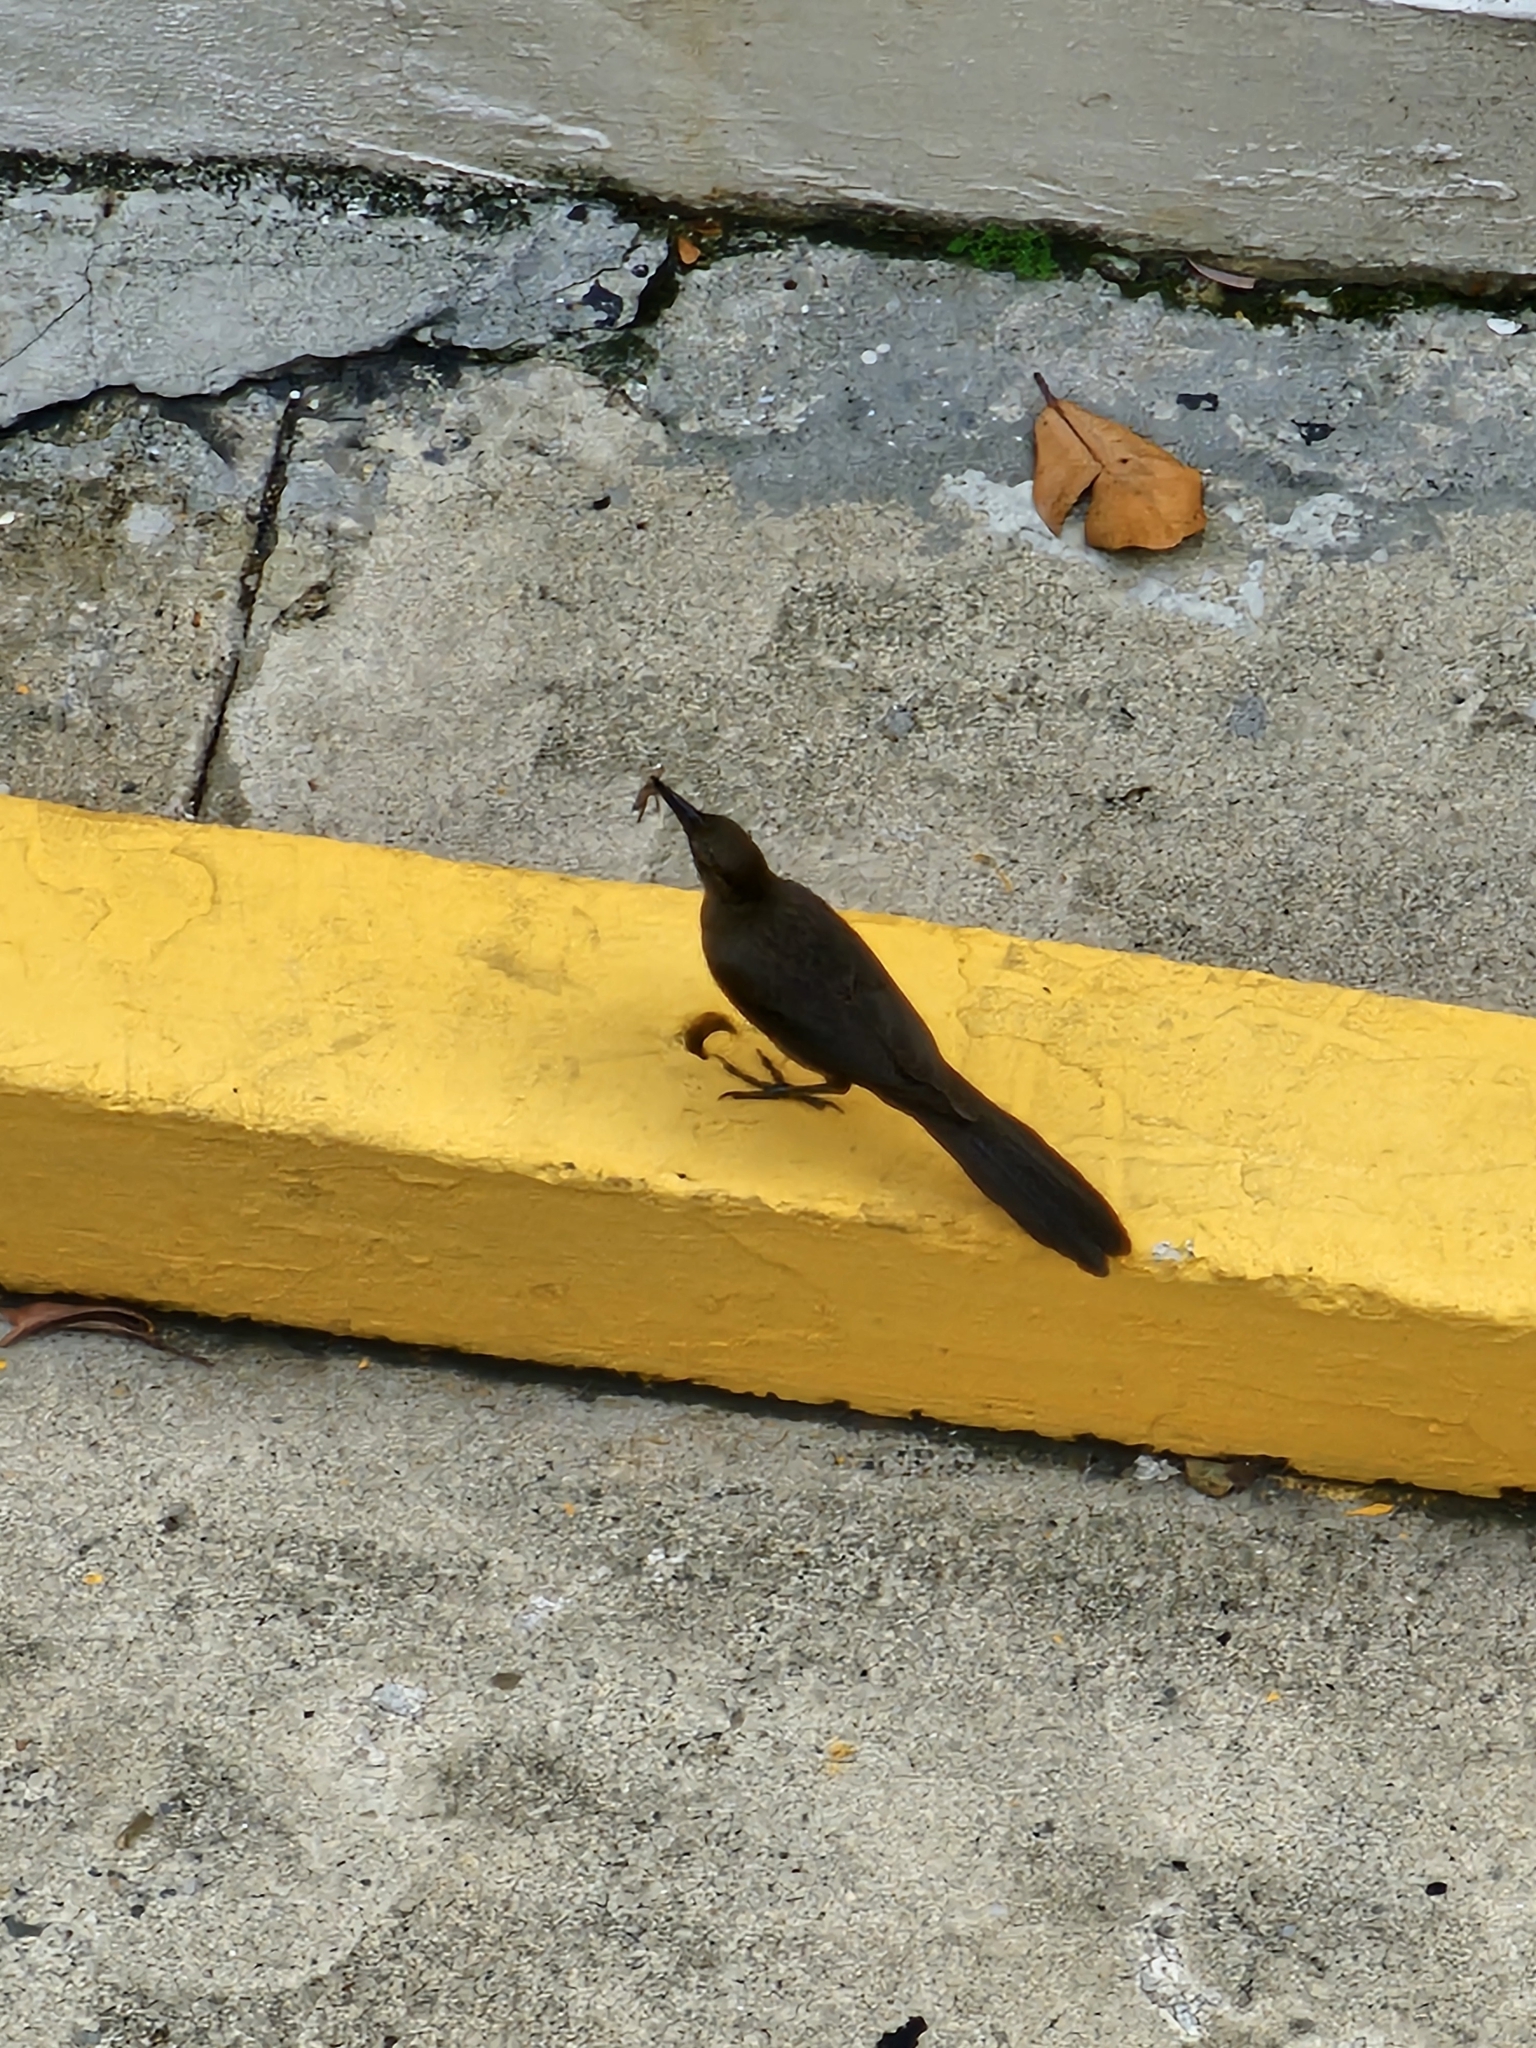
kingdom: Animalia
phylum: Chordata
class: Aves
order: Passeriformes
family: Icteridae
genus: Quiscalus
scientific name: Quiscalus mexicanus
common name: Great-tailed grackle
